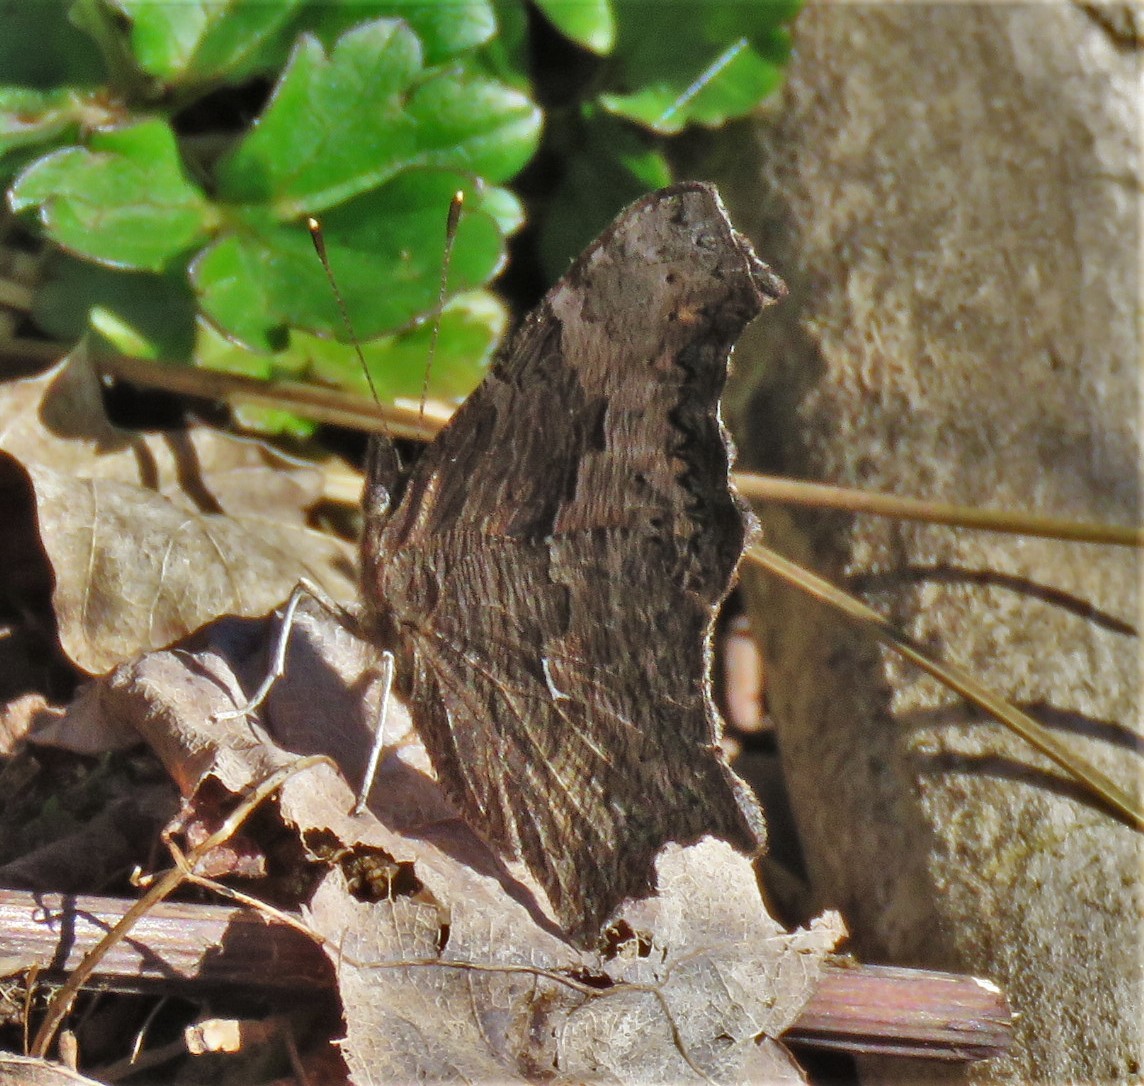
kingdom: Animalia
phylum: Arthropoda
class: Insecta
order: Lepidoptera
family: Nymphalidae
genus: Polygonia
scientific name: Polygonia progne
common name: Gray comma
